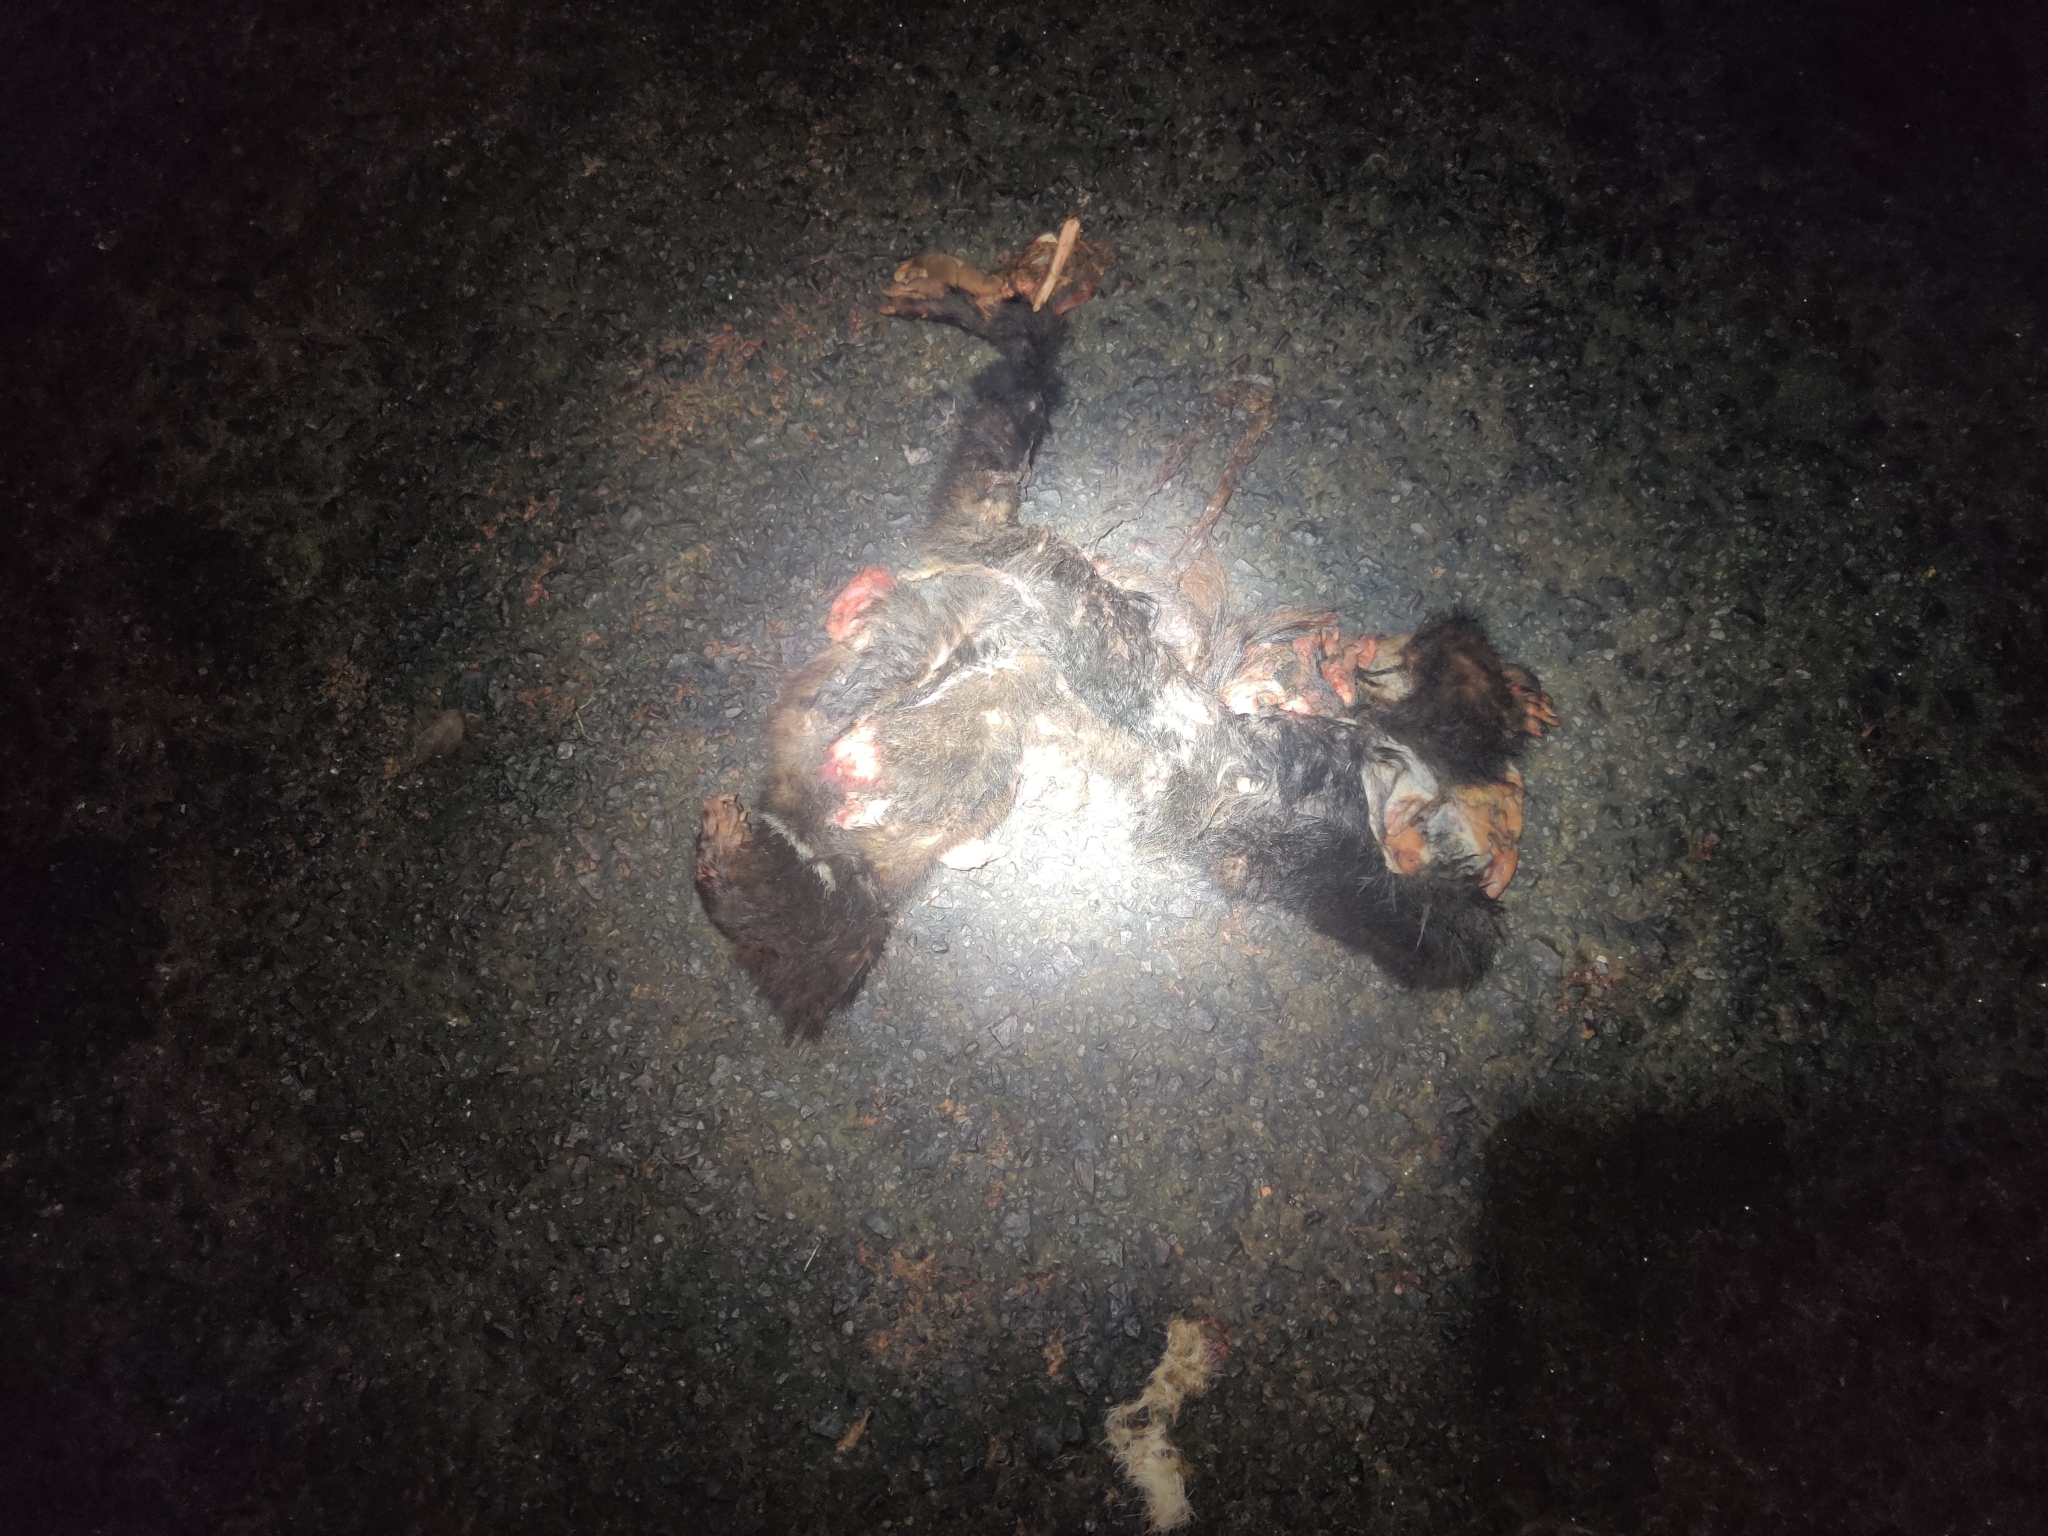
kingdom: Animalia
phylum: Chordata
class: Mammalia
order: Dasyuromorphia
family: Dasyuridae
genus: Sarcophilus
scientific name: Sarcophilus harrisii
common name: Tasmanian devil
